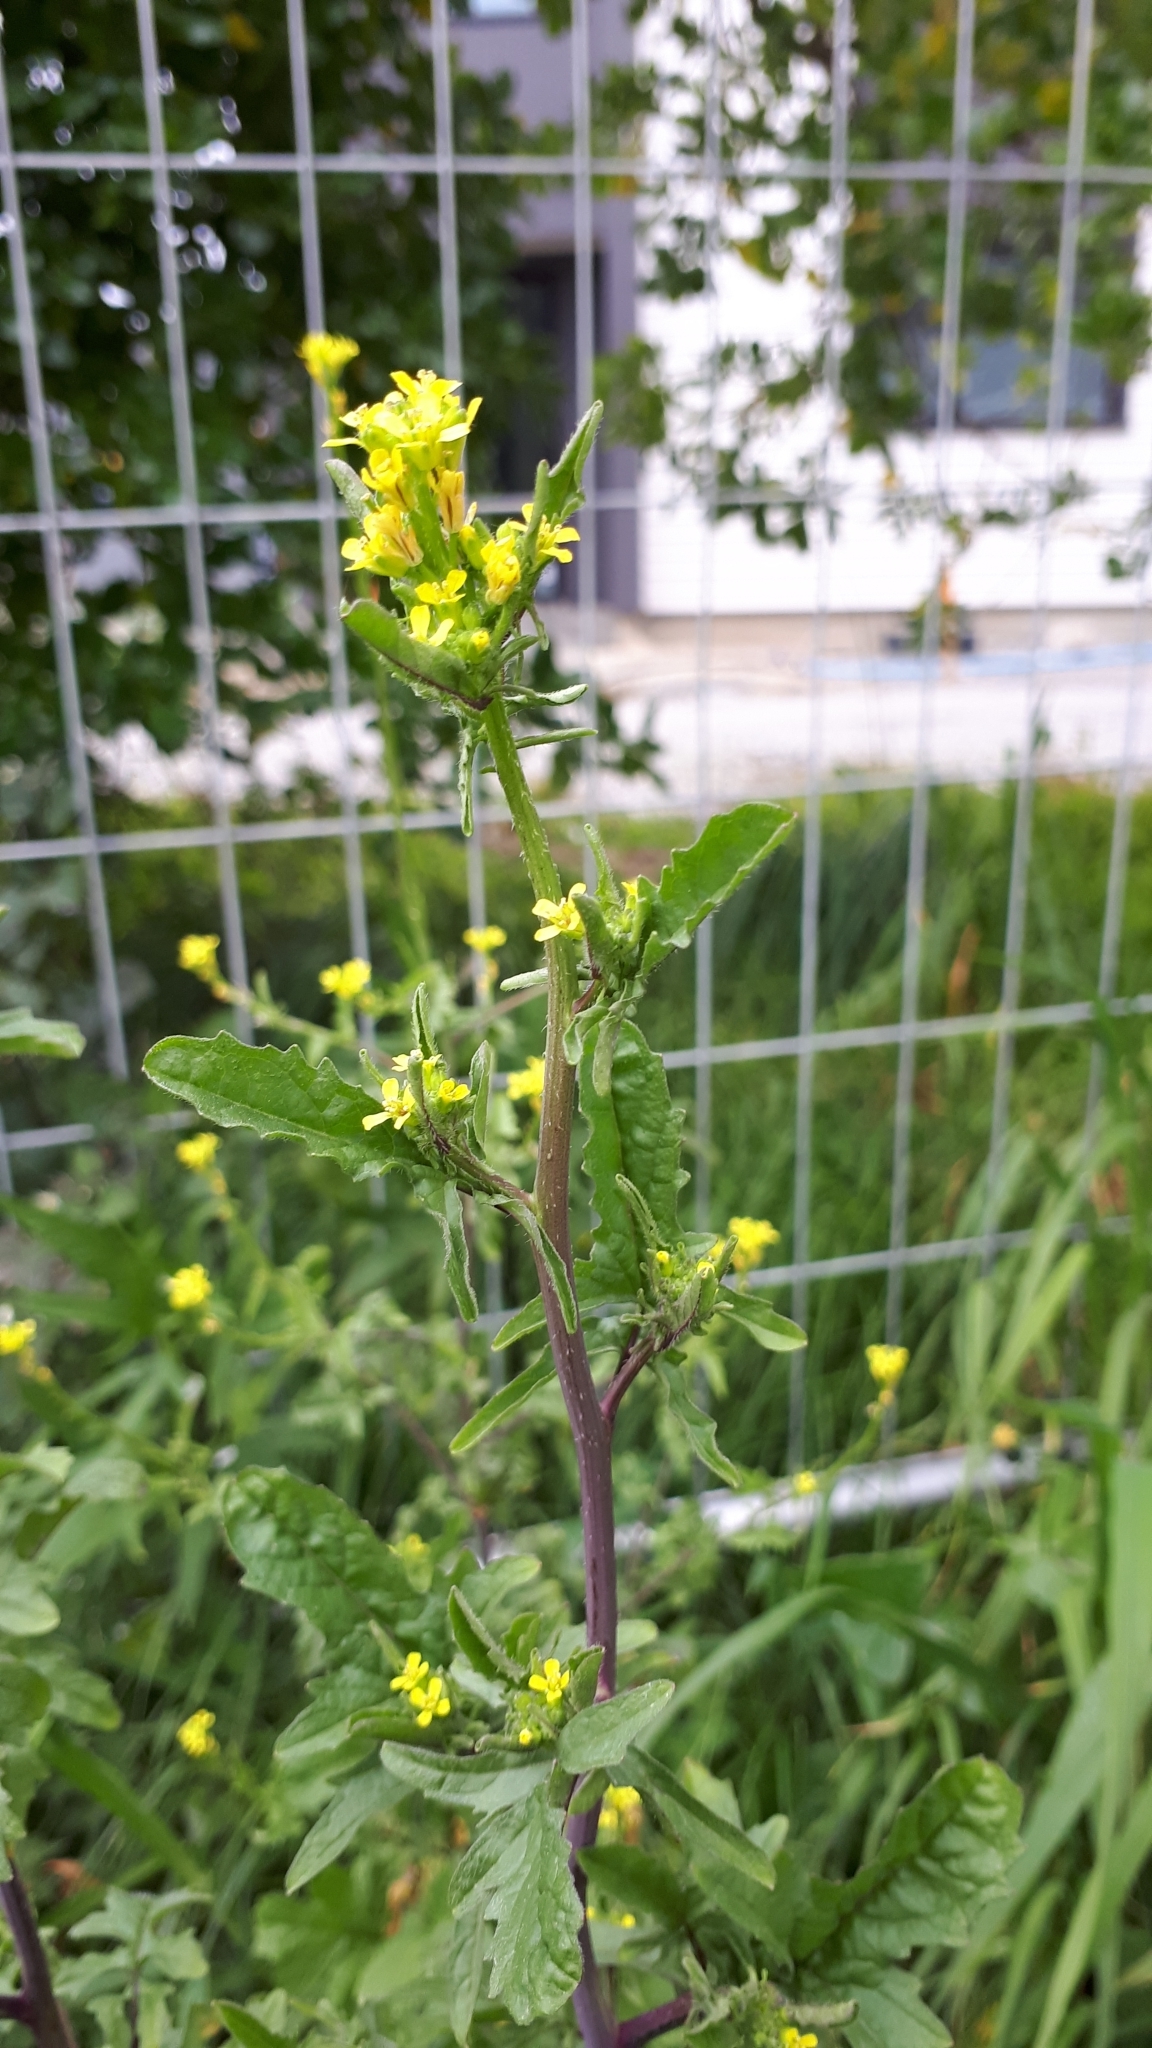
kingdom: Plantae
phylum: Tracheophyta
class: Magnoliopsida
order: Brassicales
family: Brassicaceae
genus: Sisymbrium
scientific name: Sisymbrium officinale
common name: Hedge mustard
